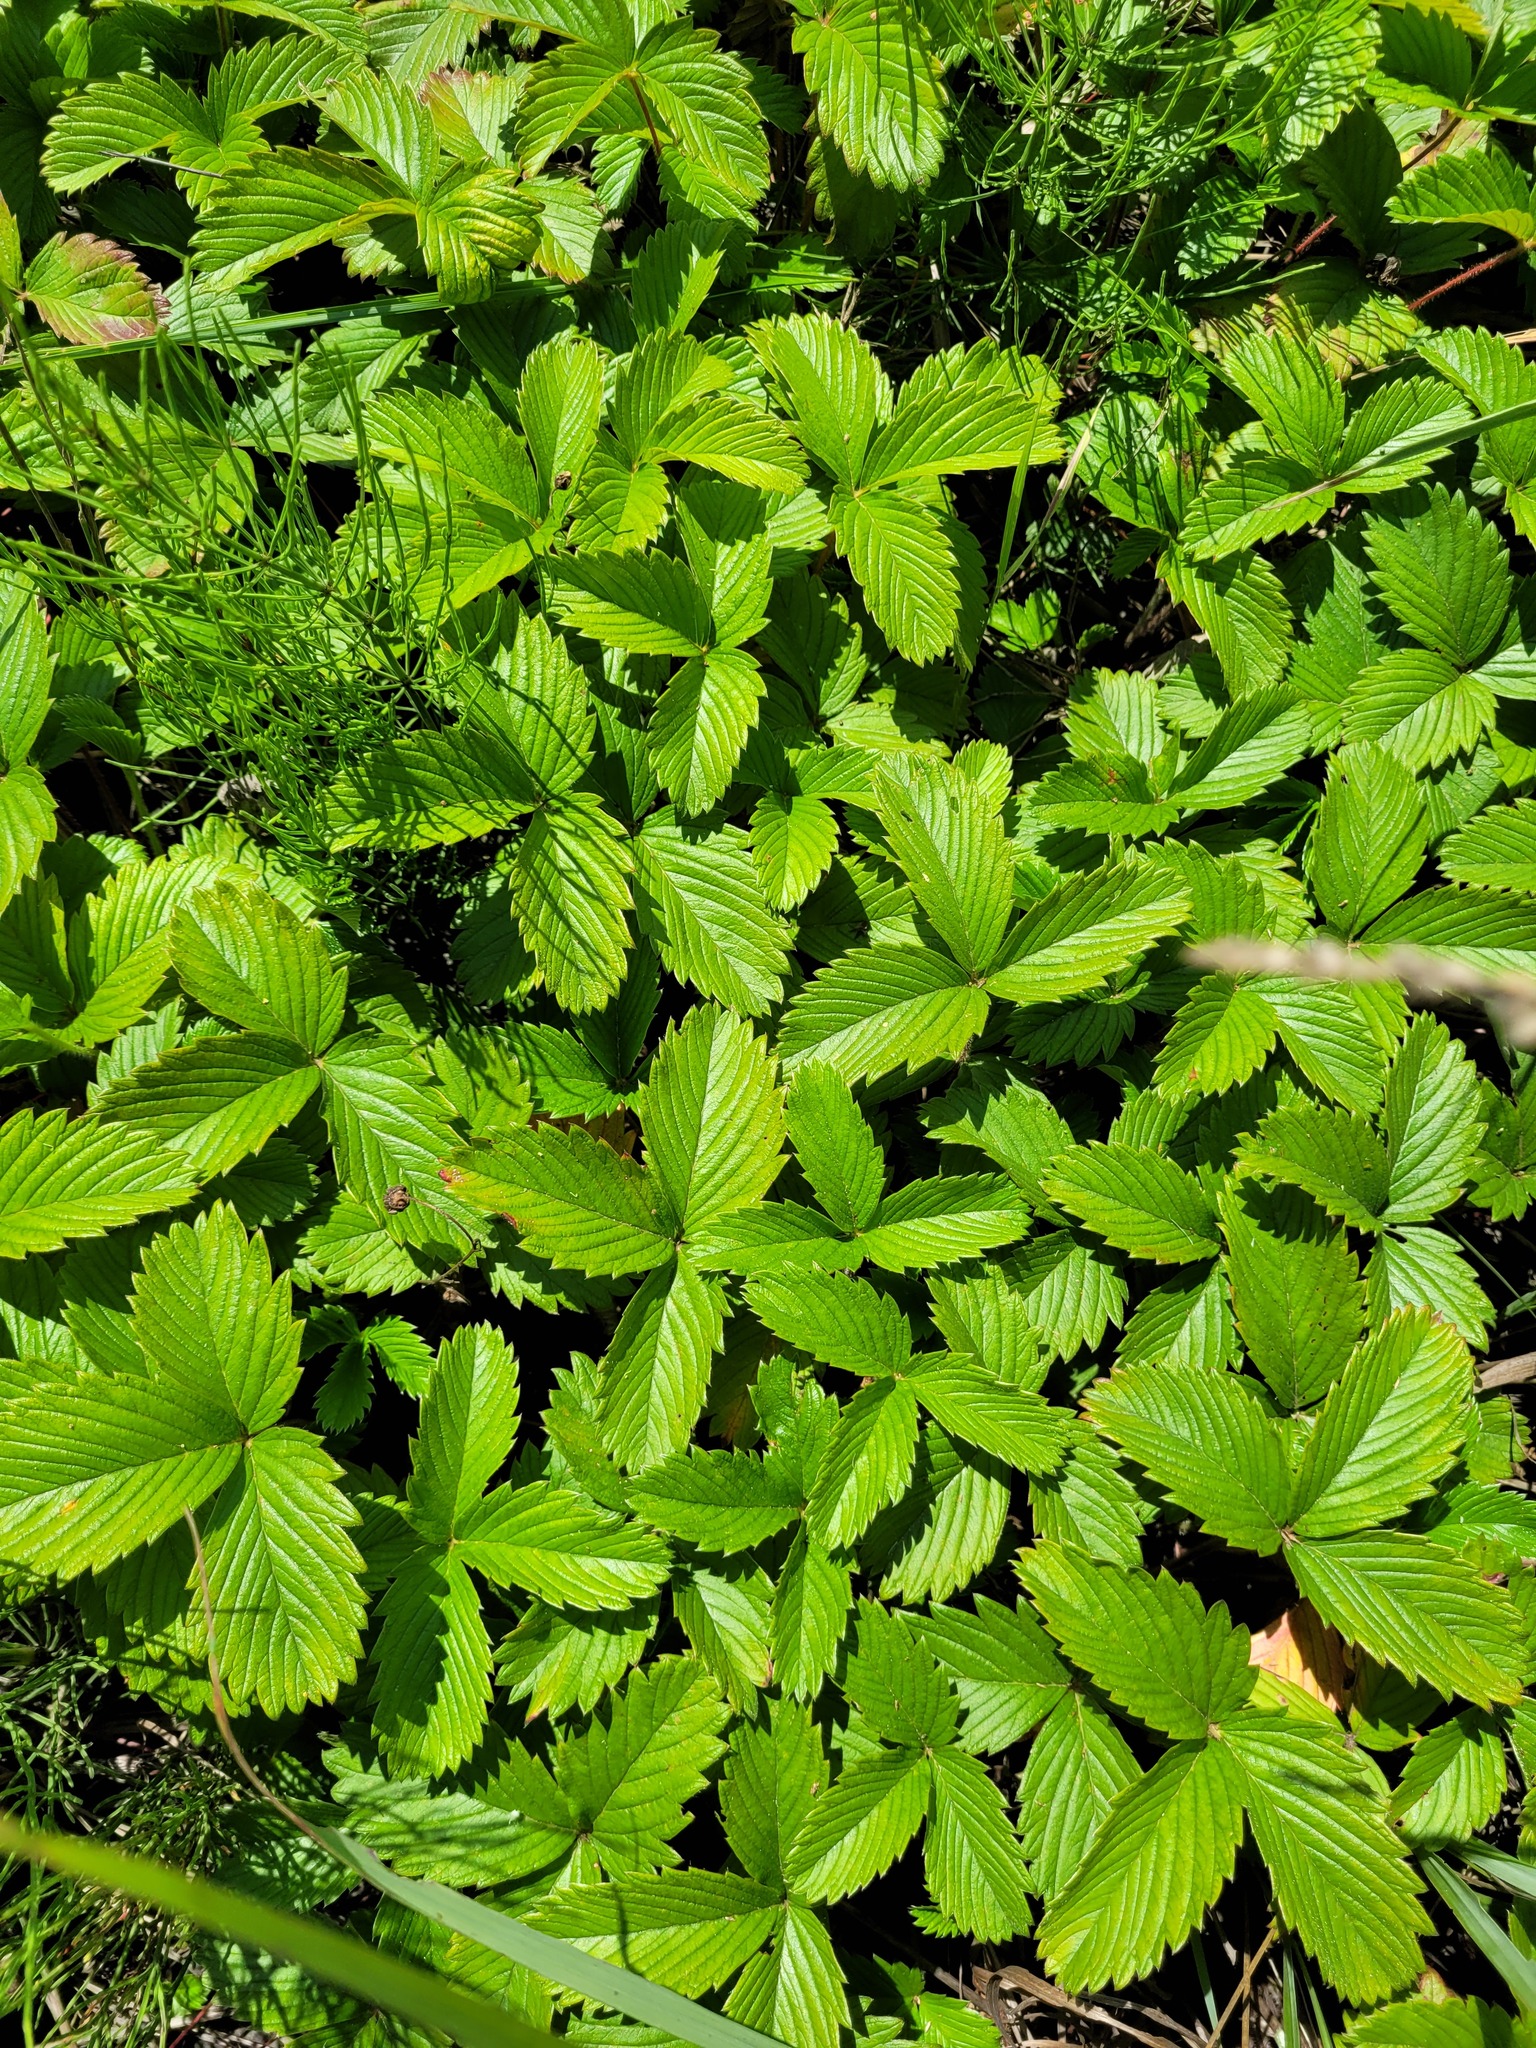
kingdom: Plantae
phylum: Tracheophyta
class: Magnoliopsida
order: Rosales
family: Rosaceae
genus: Fragaria
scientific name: Fragaria viridis
